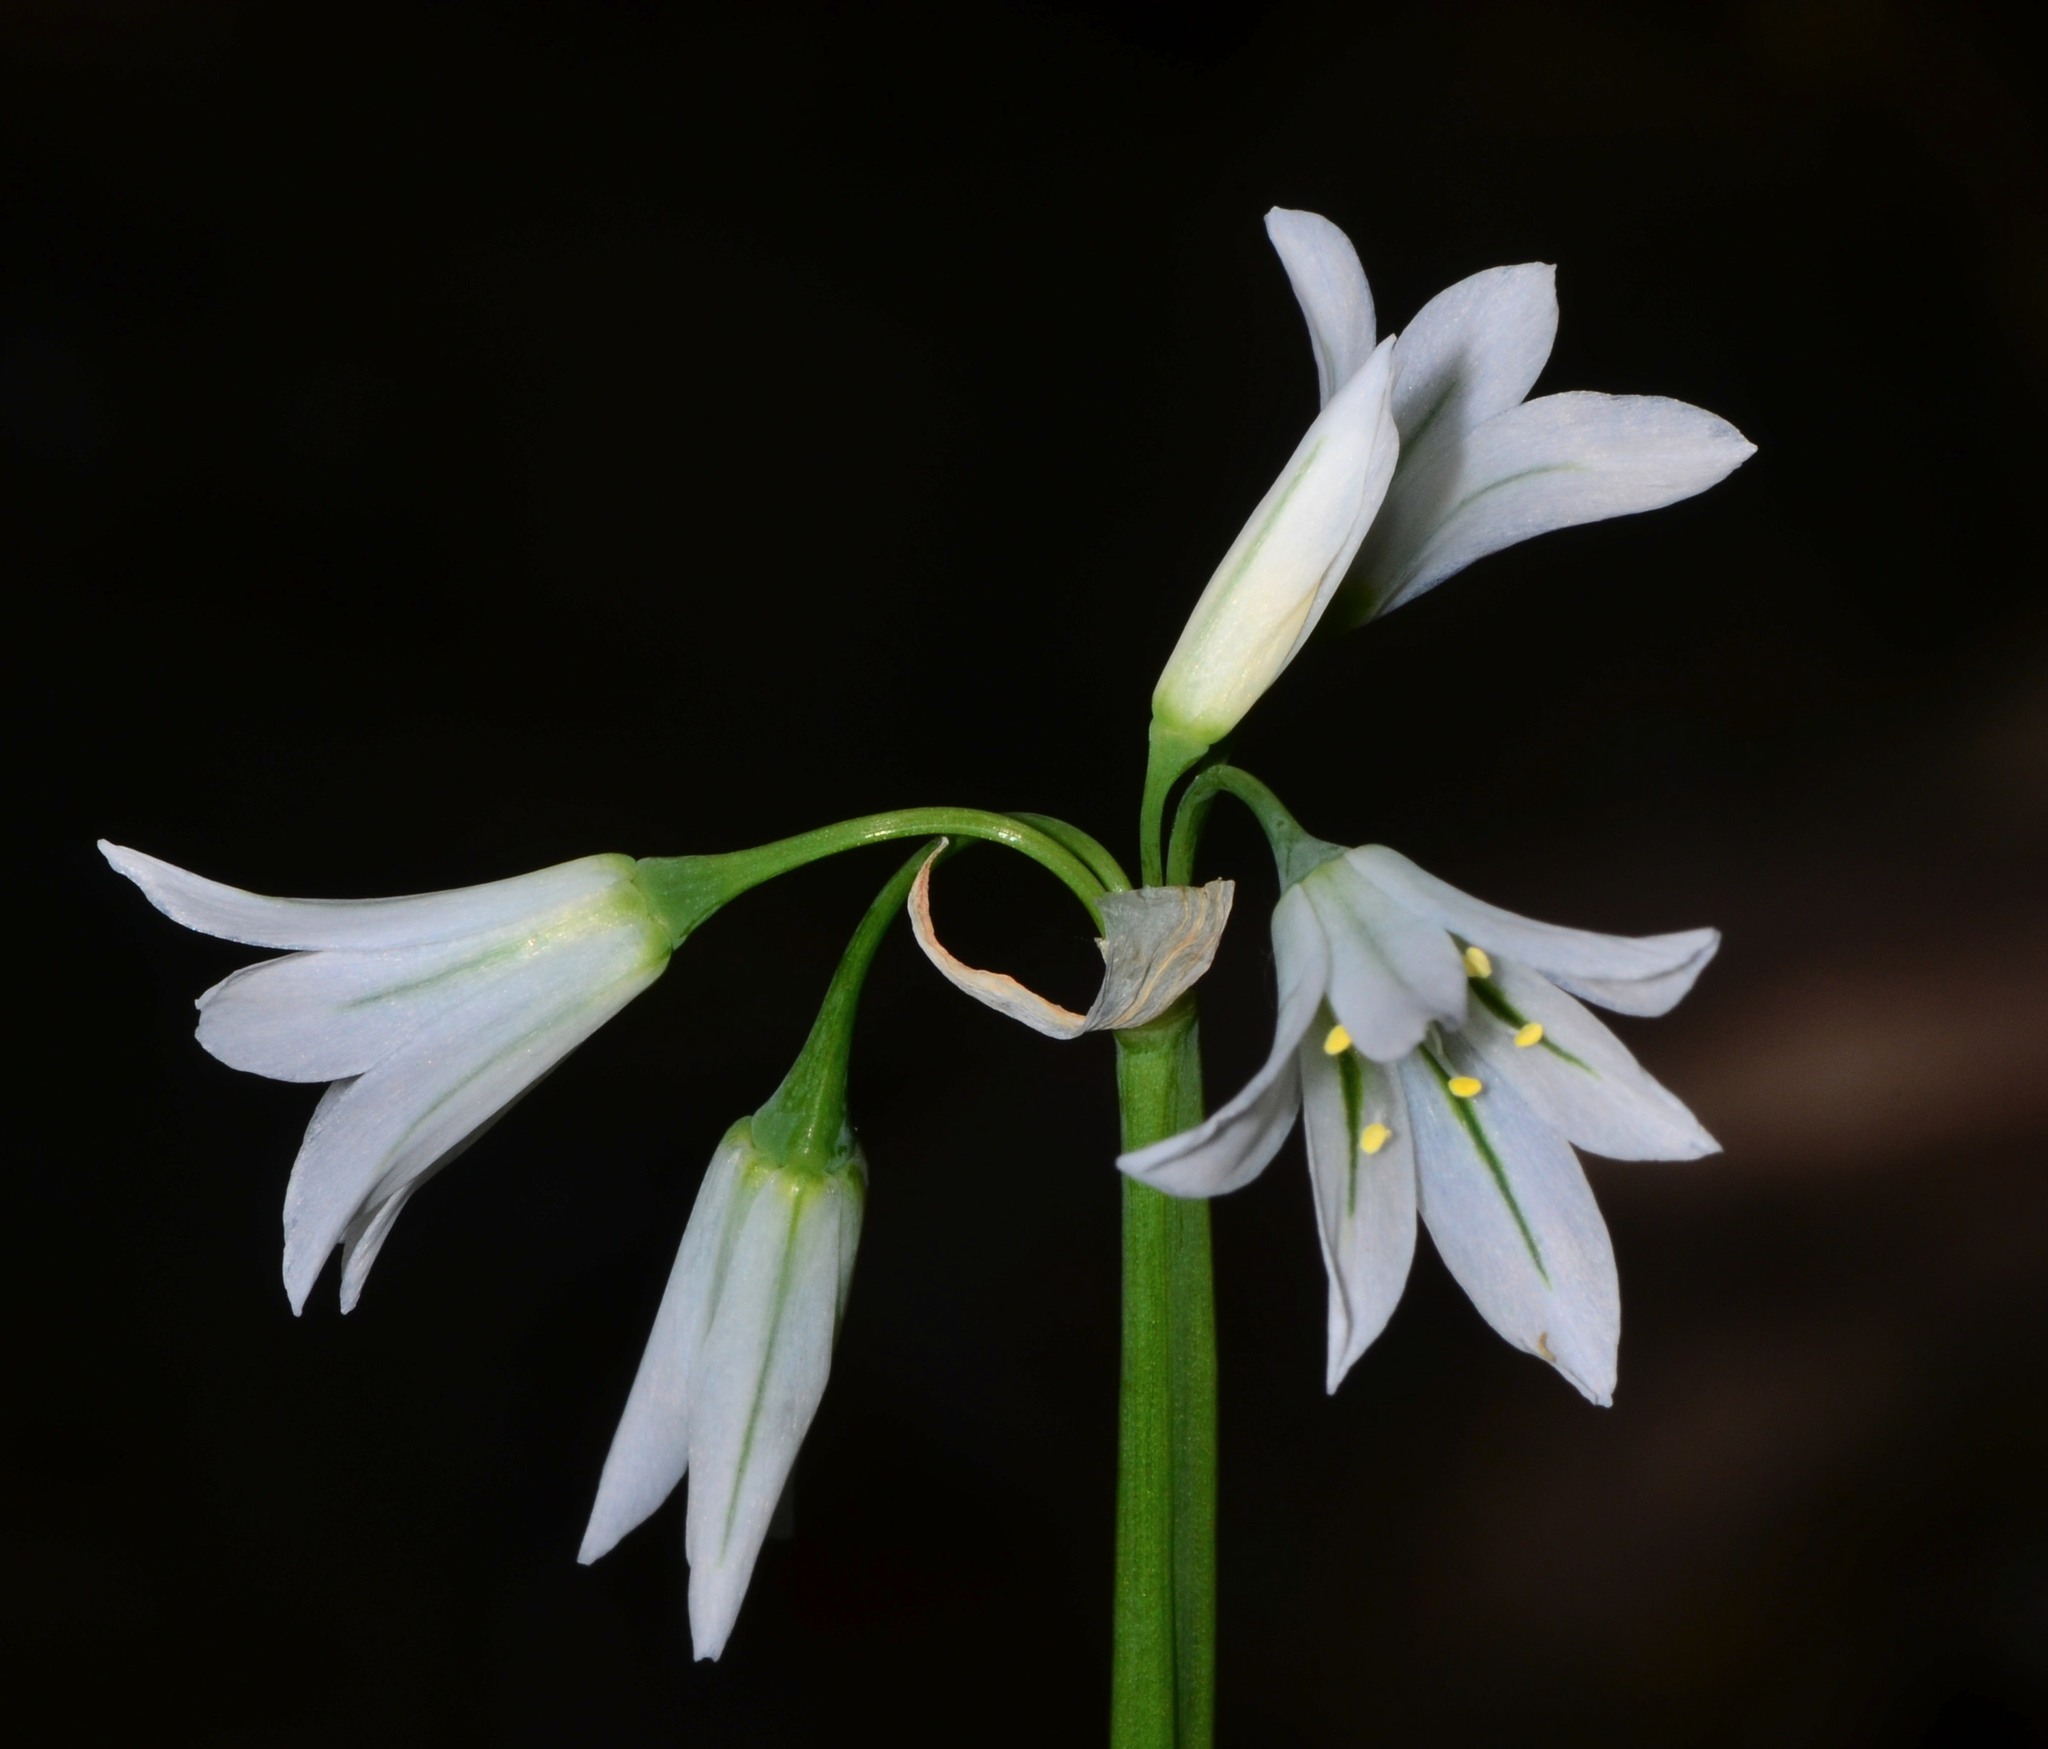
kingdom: Plantae
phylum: Tracheophyta
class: Liliopsida
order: Asparagales
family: Amaryllidaceae
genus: Allium
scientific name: Allium triquetrum
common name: Three-cornered garlic
